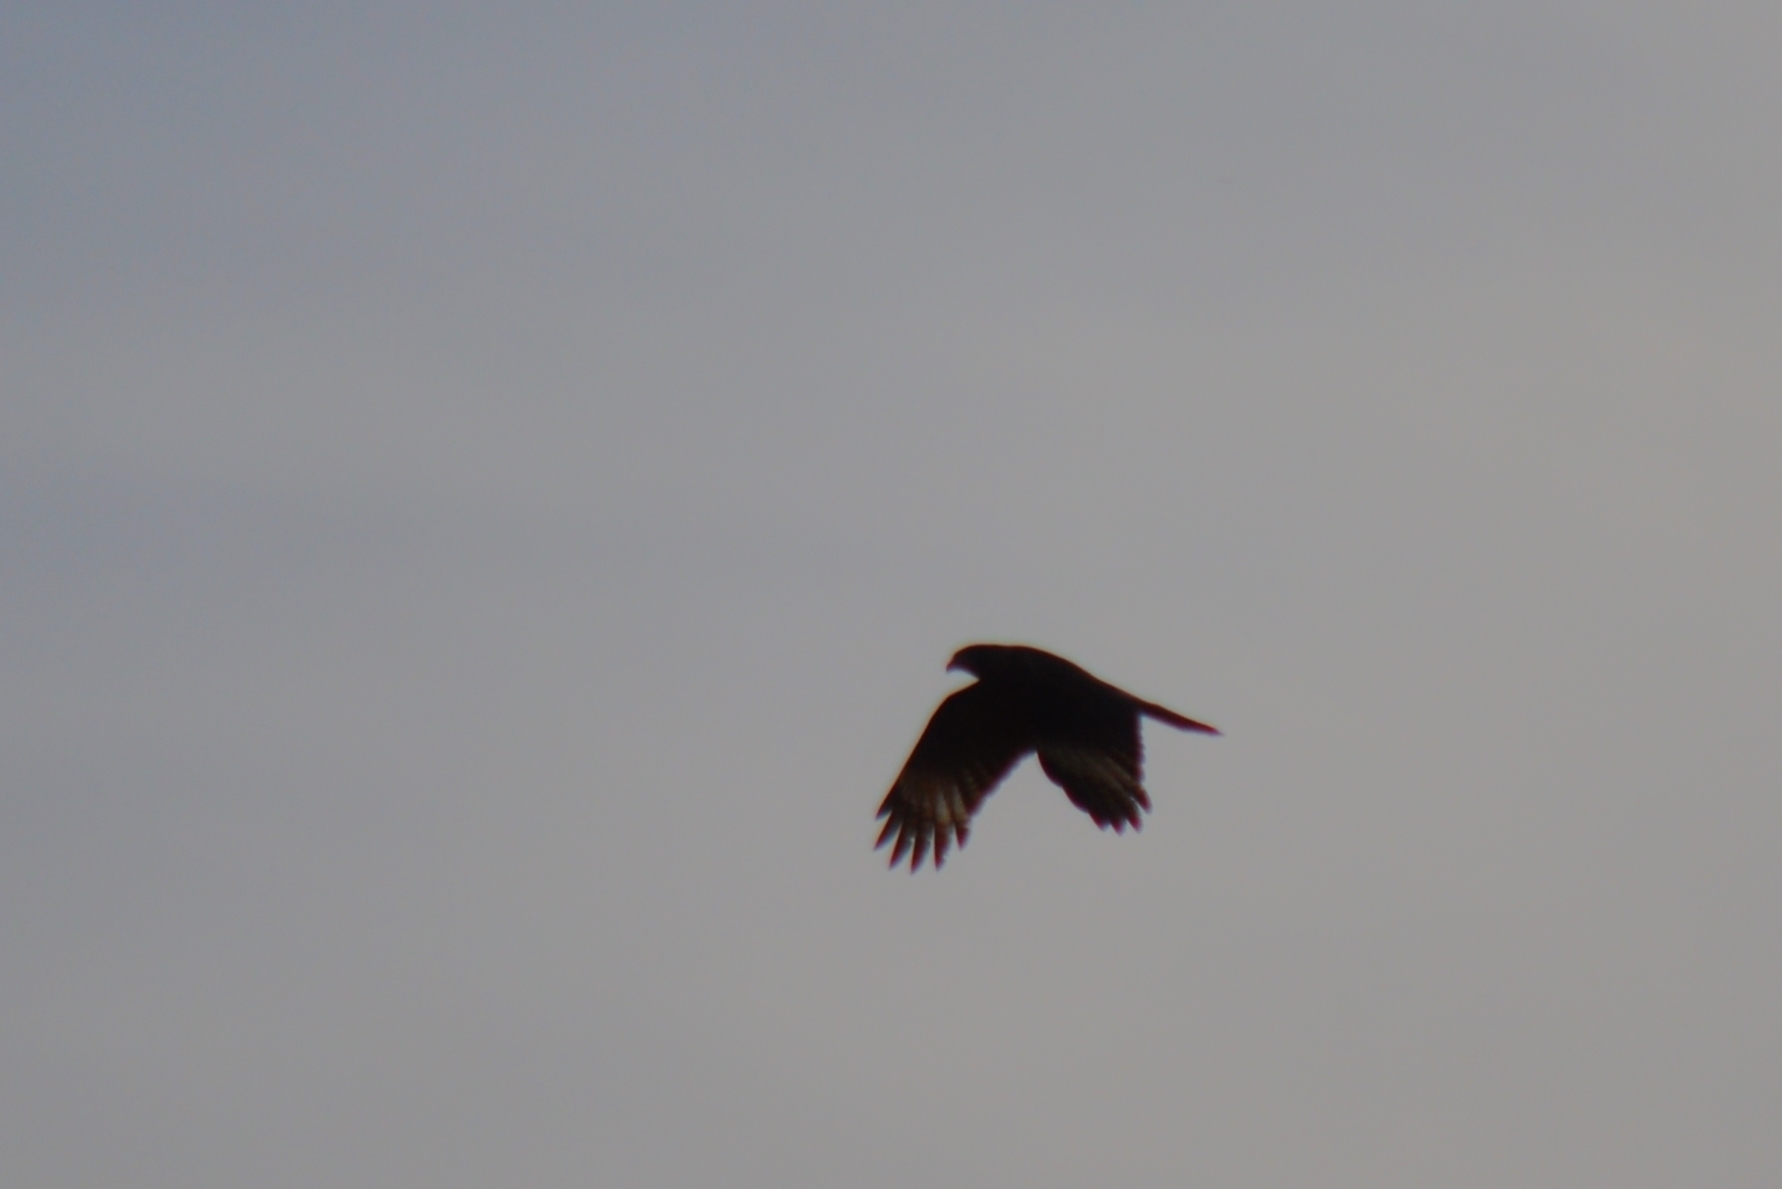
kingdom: Animalia
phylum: Chordata
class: Aves
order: Falconiformes
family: Falconidae
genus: Daptrius
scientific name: Daptrius
